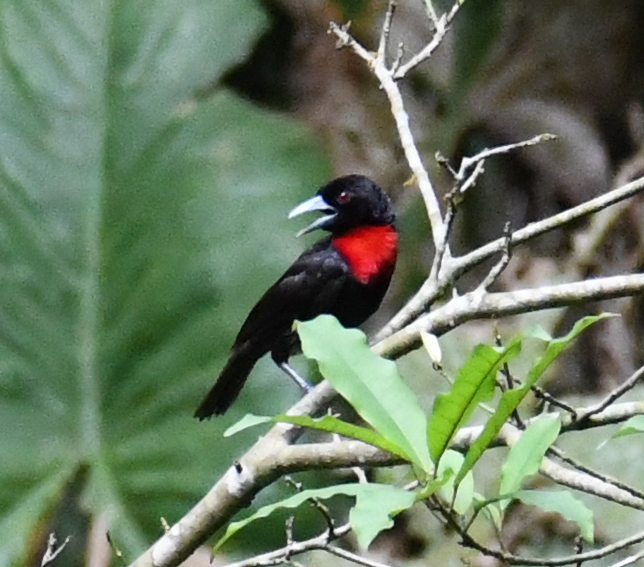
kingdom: Animalia
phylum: Chordata
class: Aves
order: Passeriformes
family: Ploceidae
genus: Malimbus
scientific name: Malimbus nitens
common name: Blue-billed malimbe
